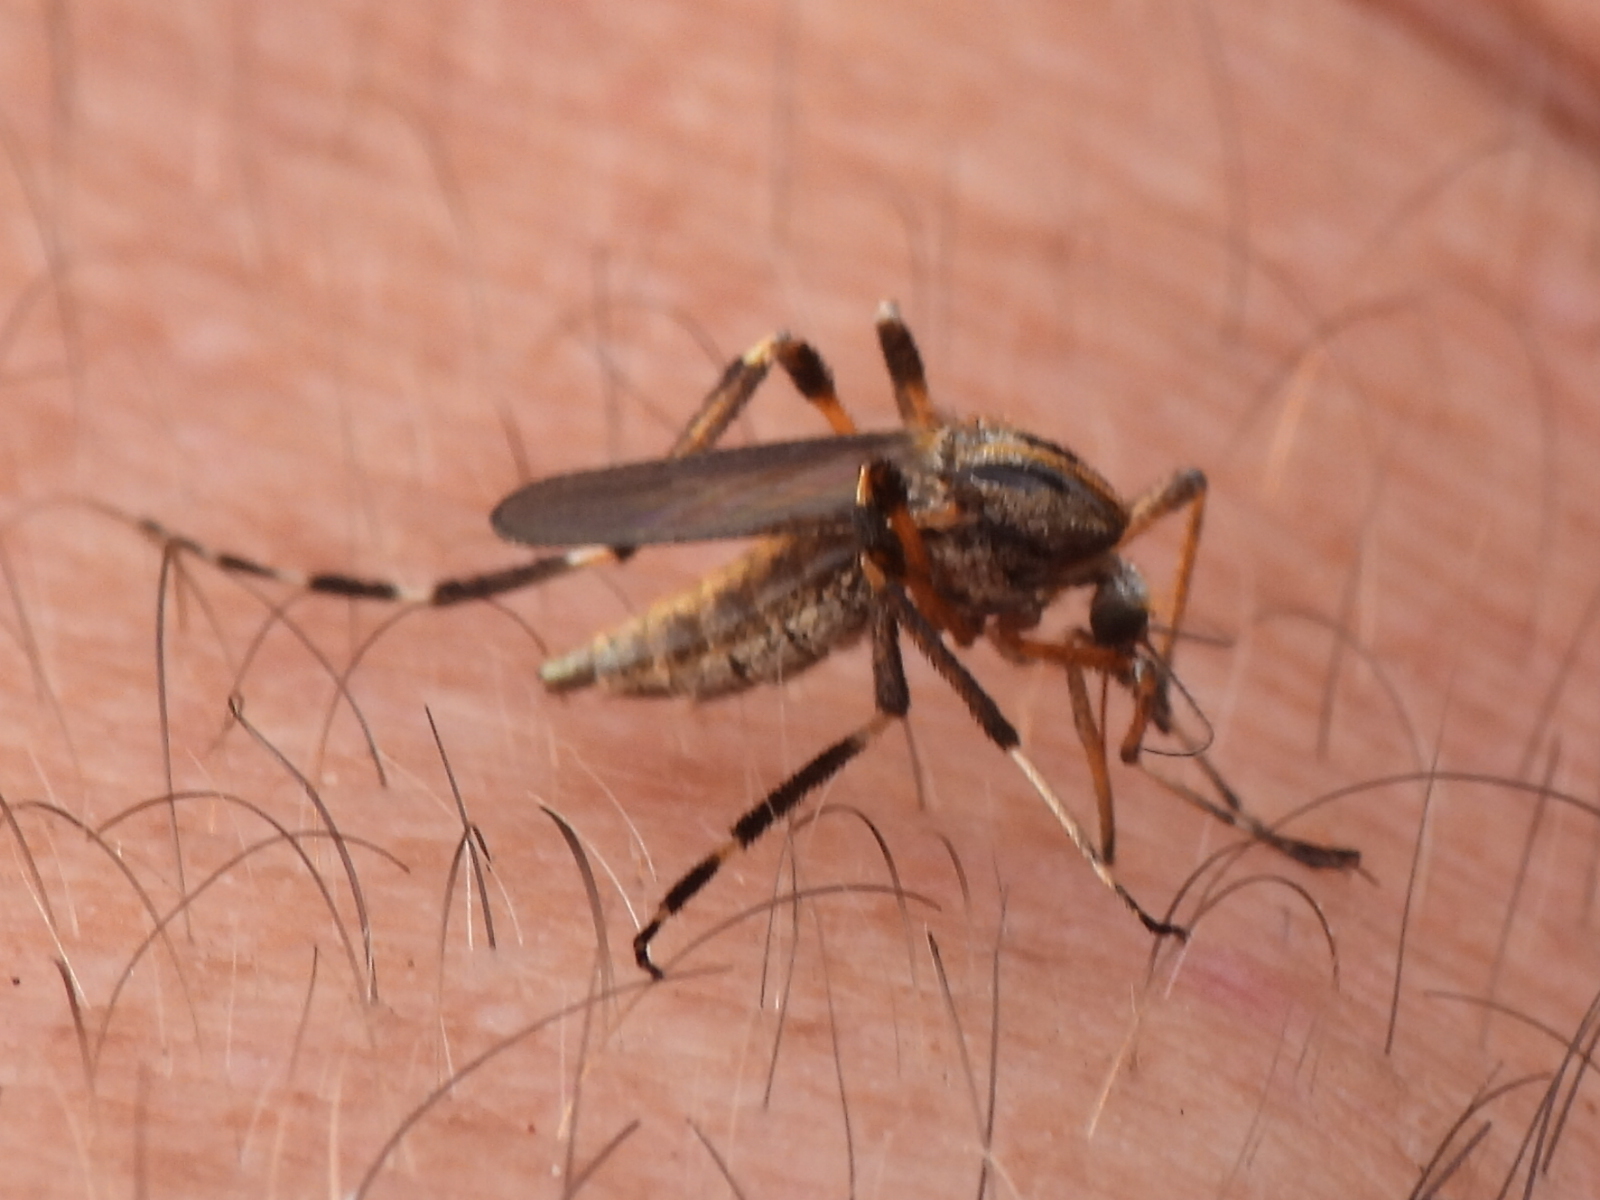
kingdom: Animalia
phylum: Arthropoda
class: Insecta
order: Diptera
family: Culicidae
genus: Psorophora
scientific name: Psorophora ciliata
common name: Gallinipper
